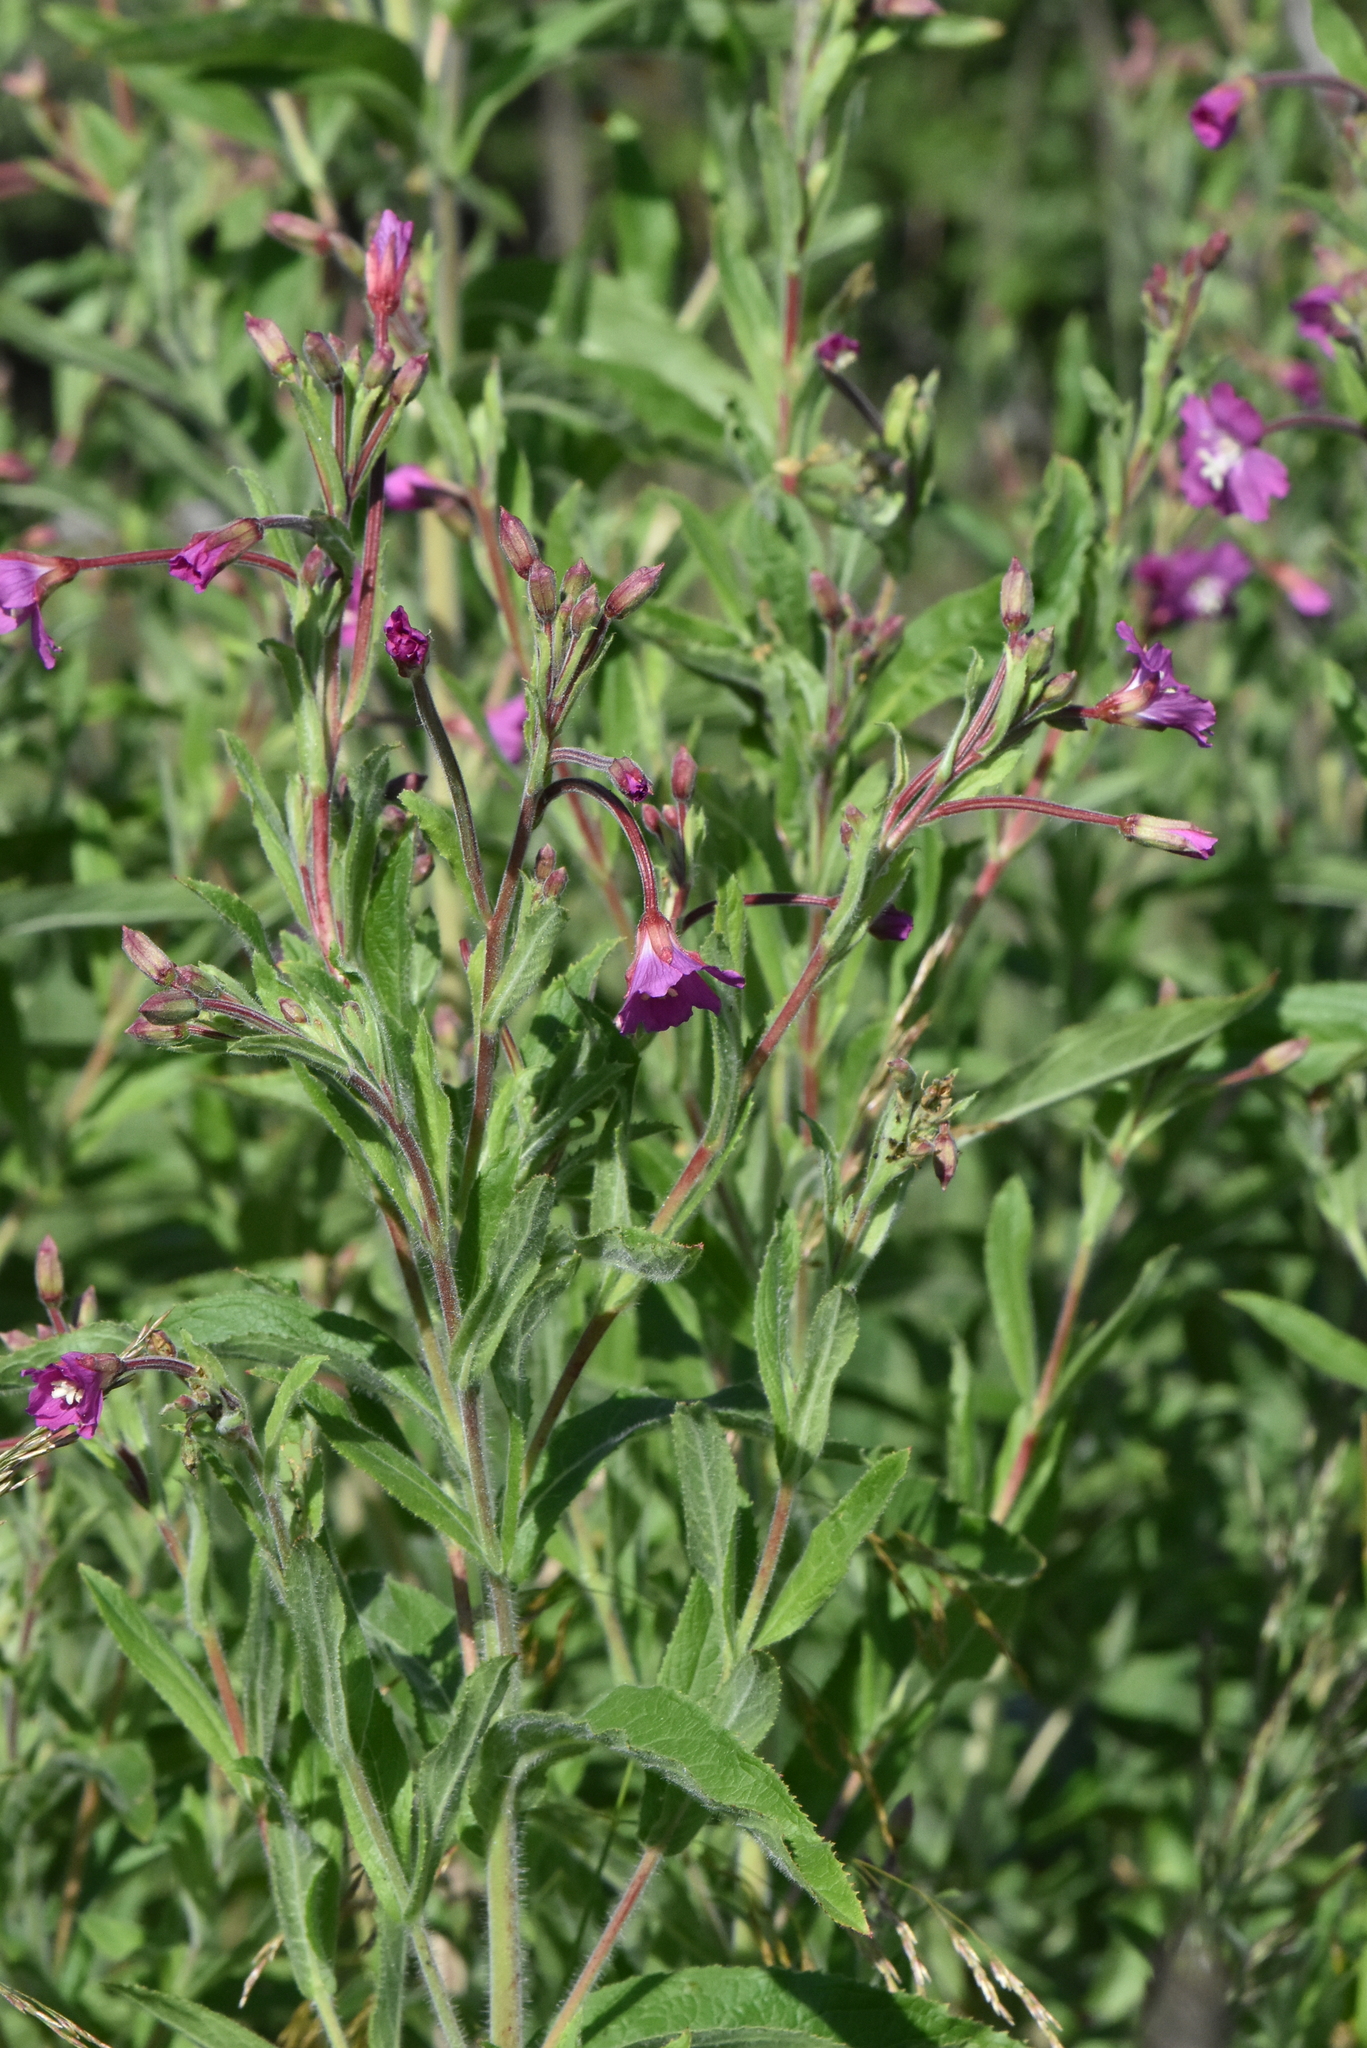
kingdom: Plantae
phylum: Tracheophyta
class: Magnoliopsida
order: Myrtales
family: Onagraceae
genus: Epilobium
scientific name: Epilobium hirsutum
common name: Great willowherb
